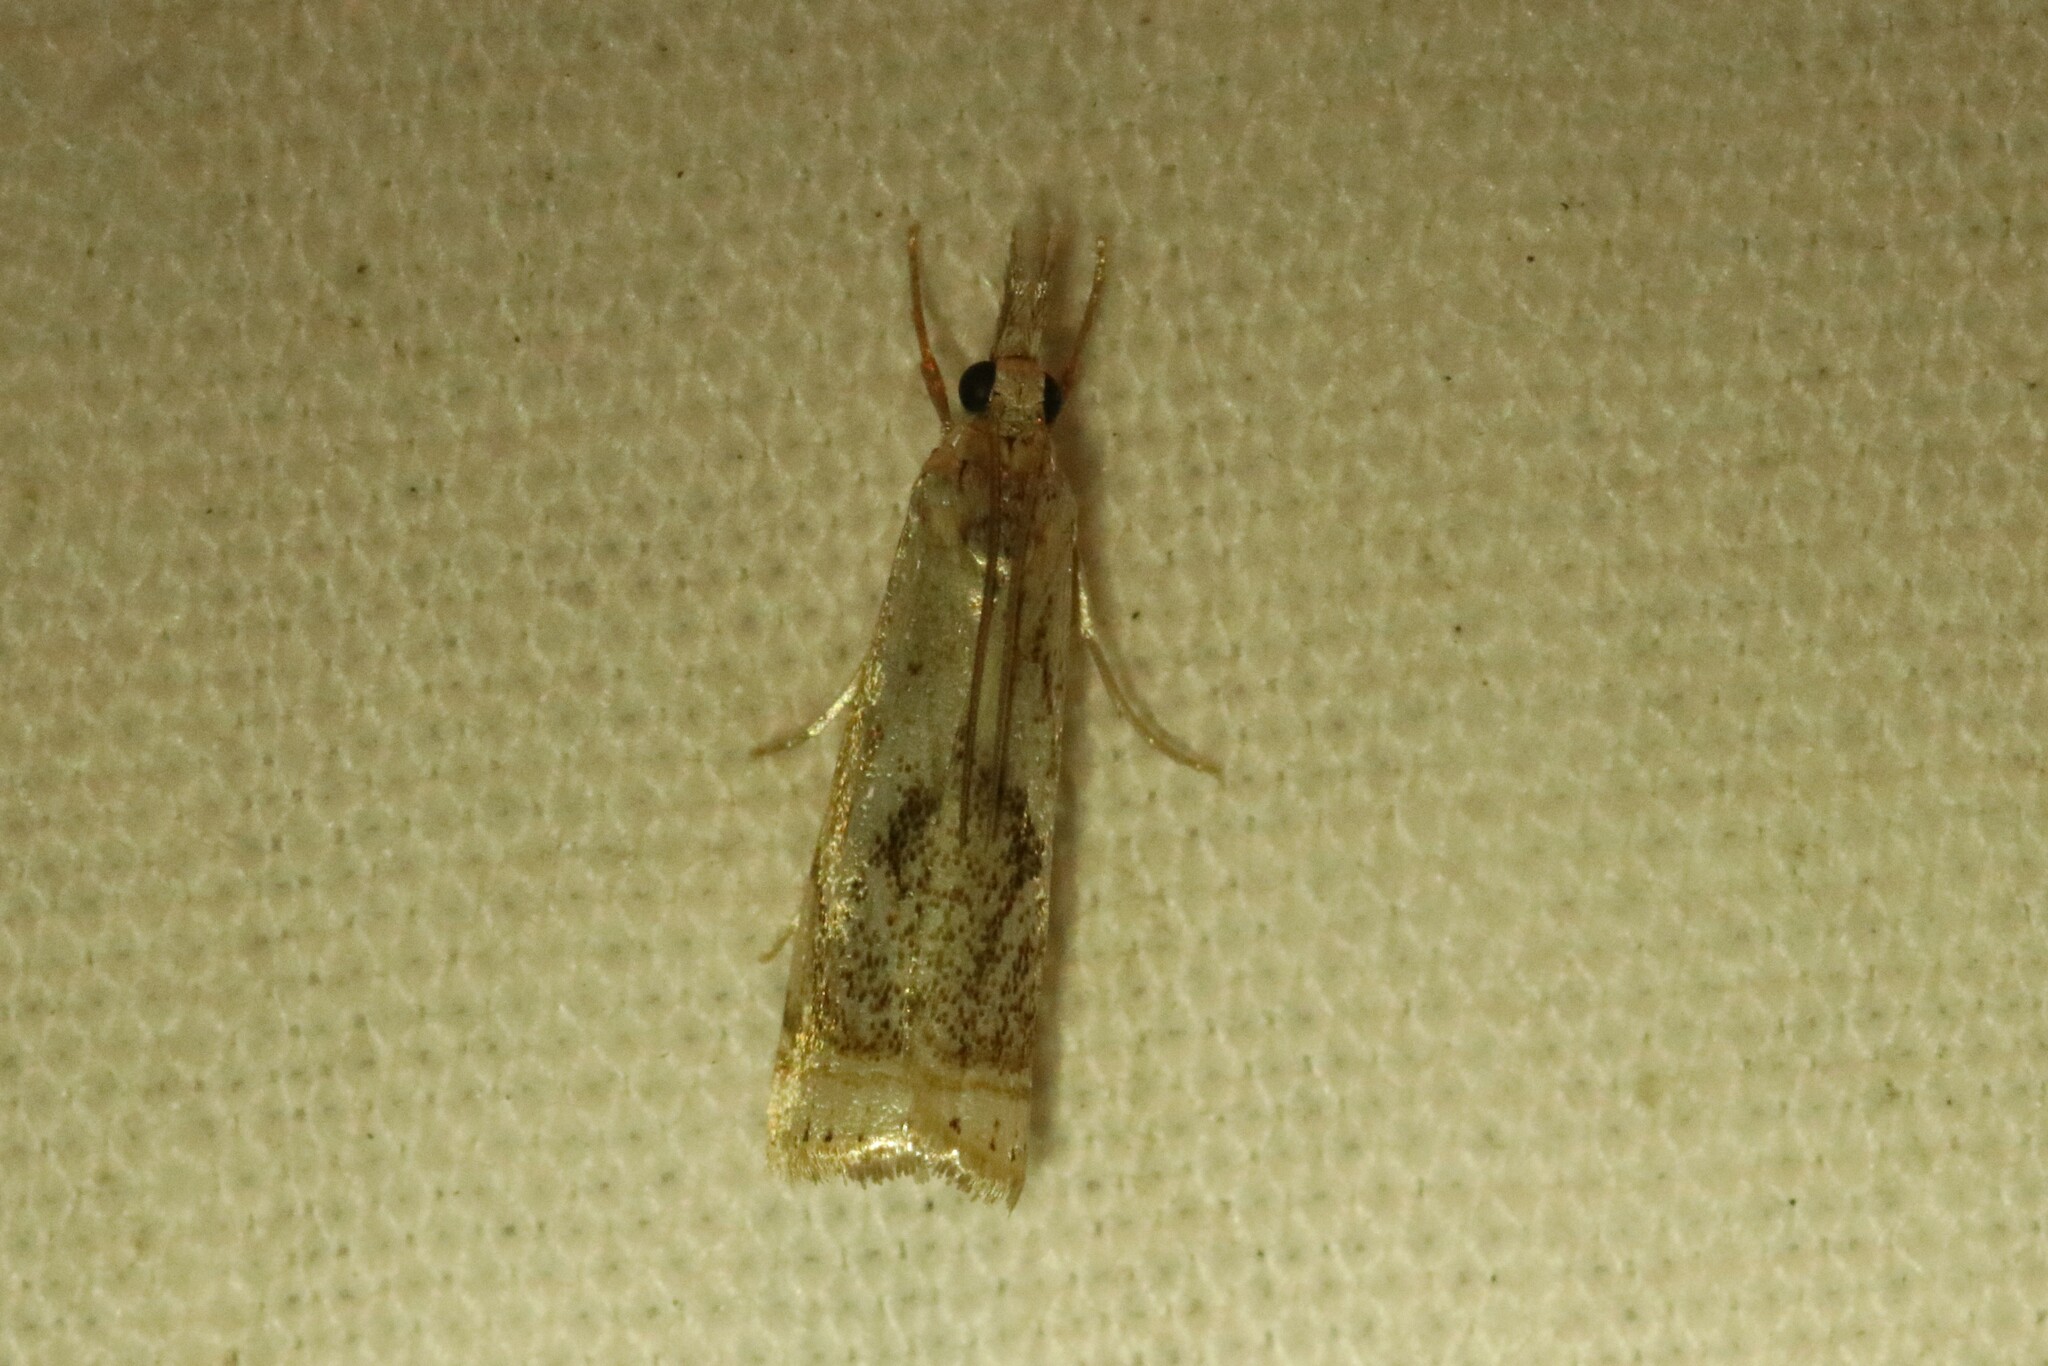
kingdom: Animalia
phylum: Arthropoda
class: Insecta
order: Lepidoptera
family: Crambidae
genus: Microcrambus
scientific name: Microcrambus elegans
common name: Elegant grass-veneer
